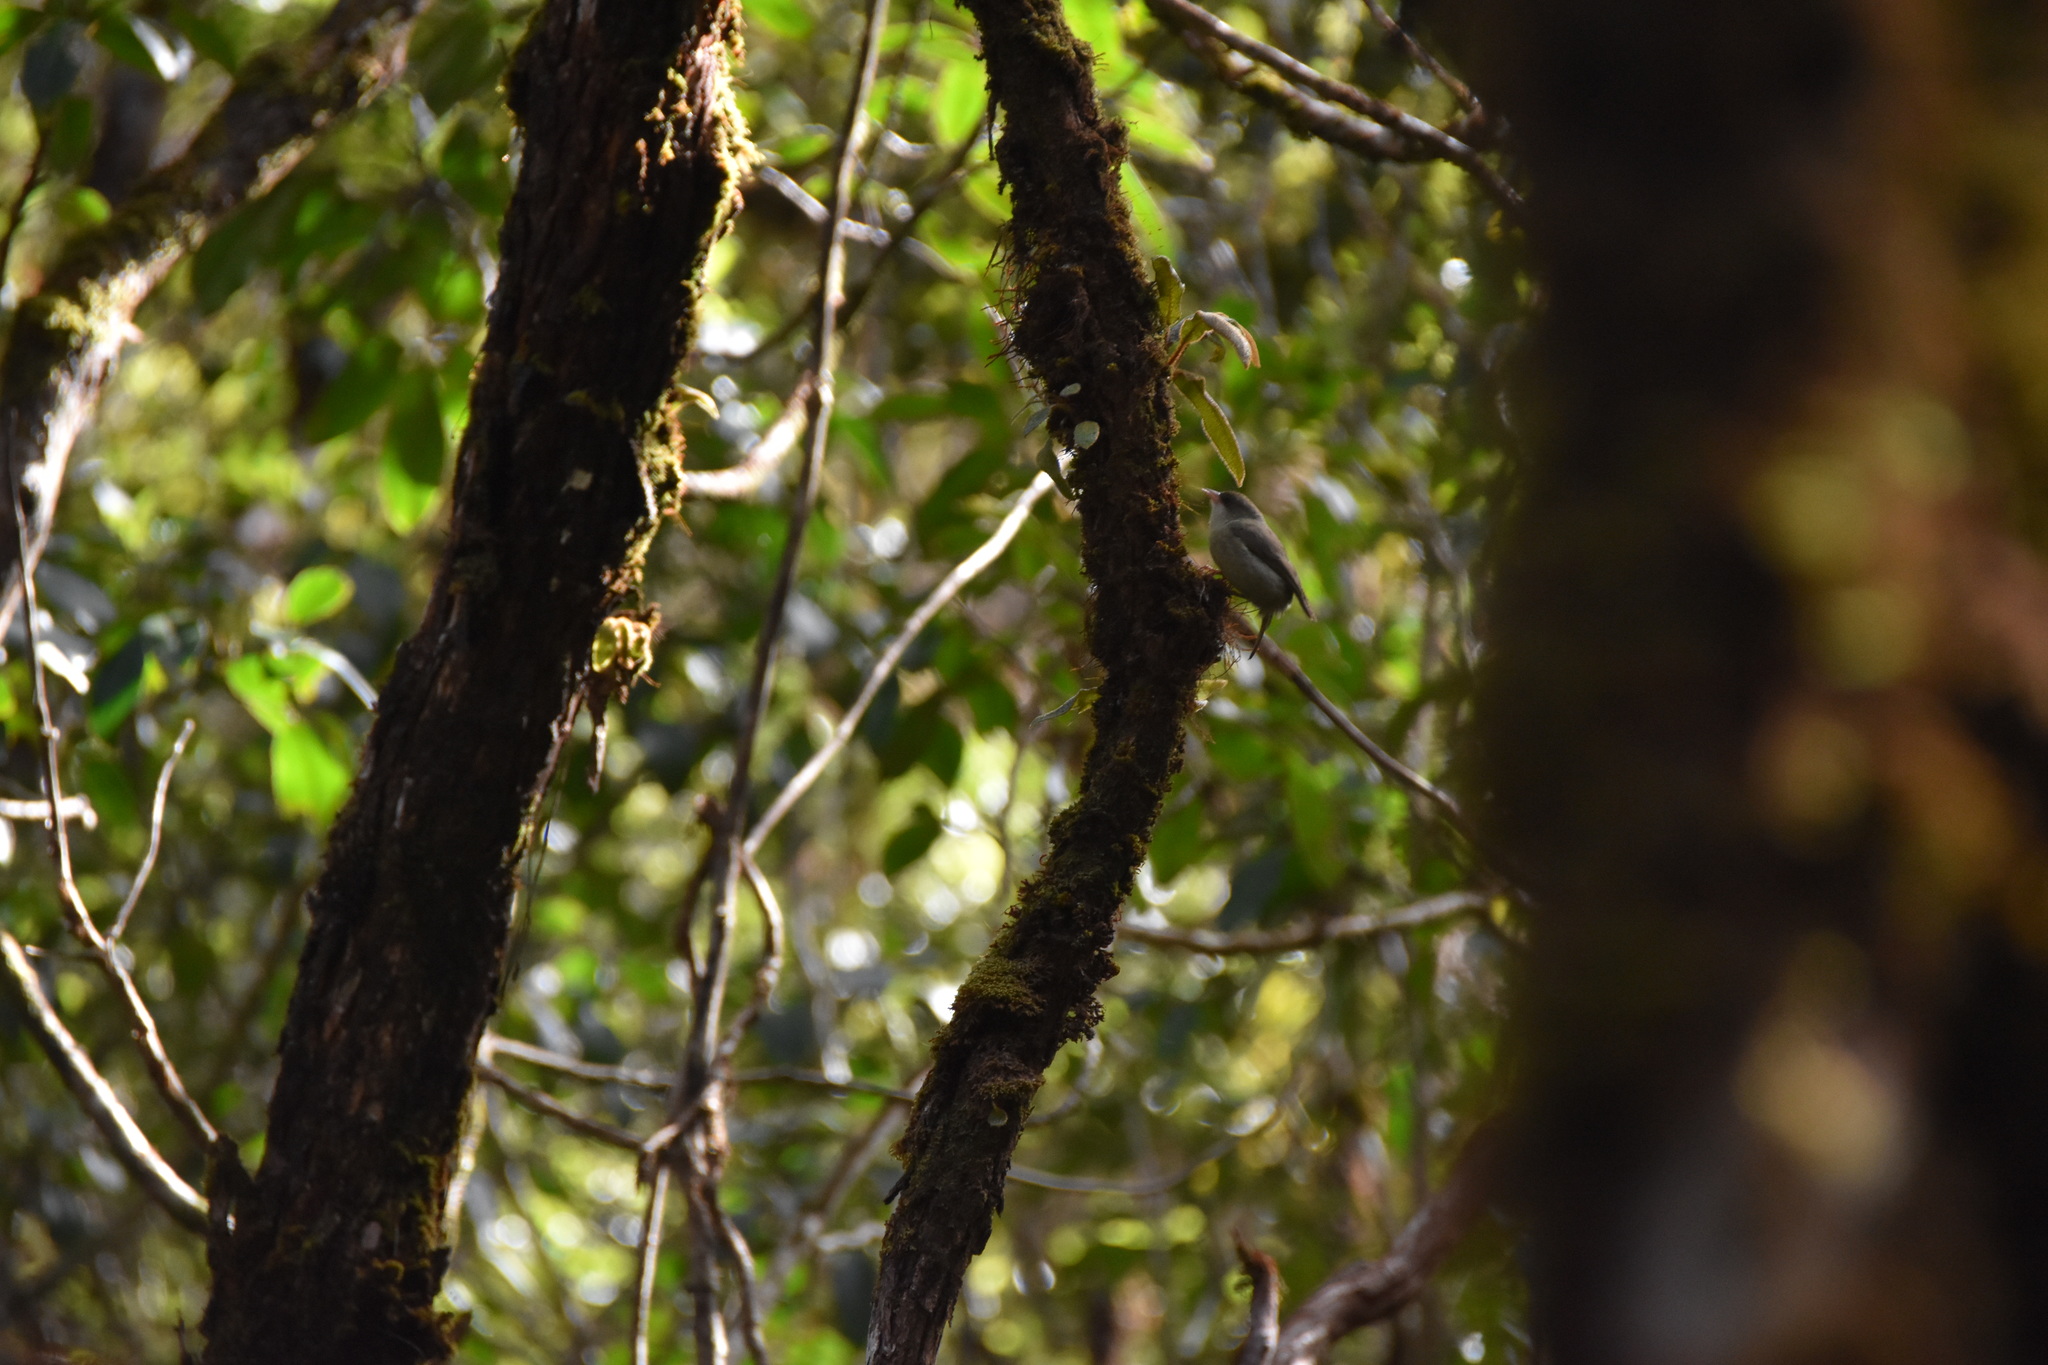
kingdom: Animalia
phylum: Chordata
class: Aves
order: Passeriformes
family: Fringillidae
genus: Oreomystis
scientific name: Oreomystis bairdi
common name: Akikiki
